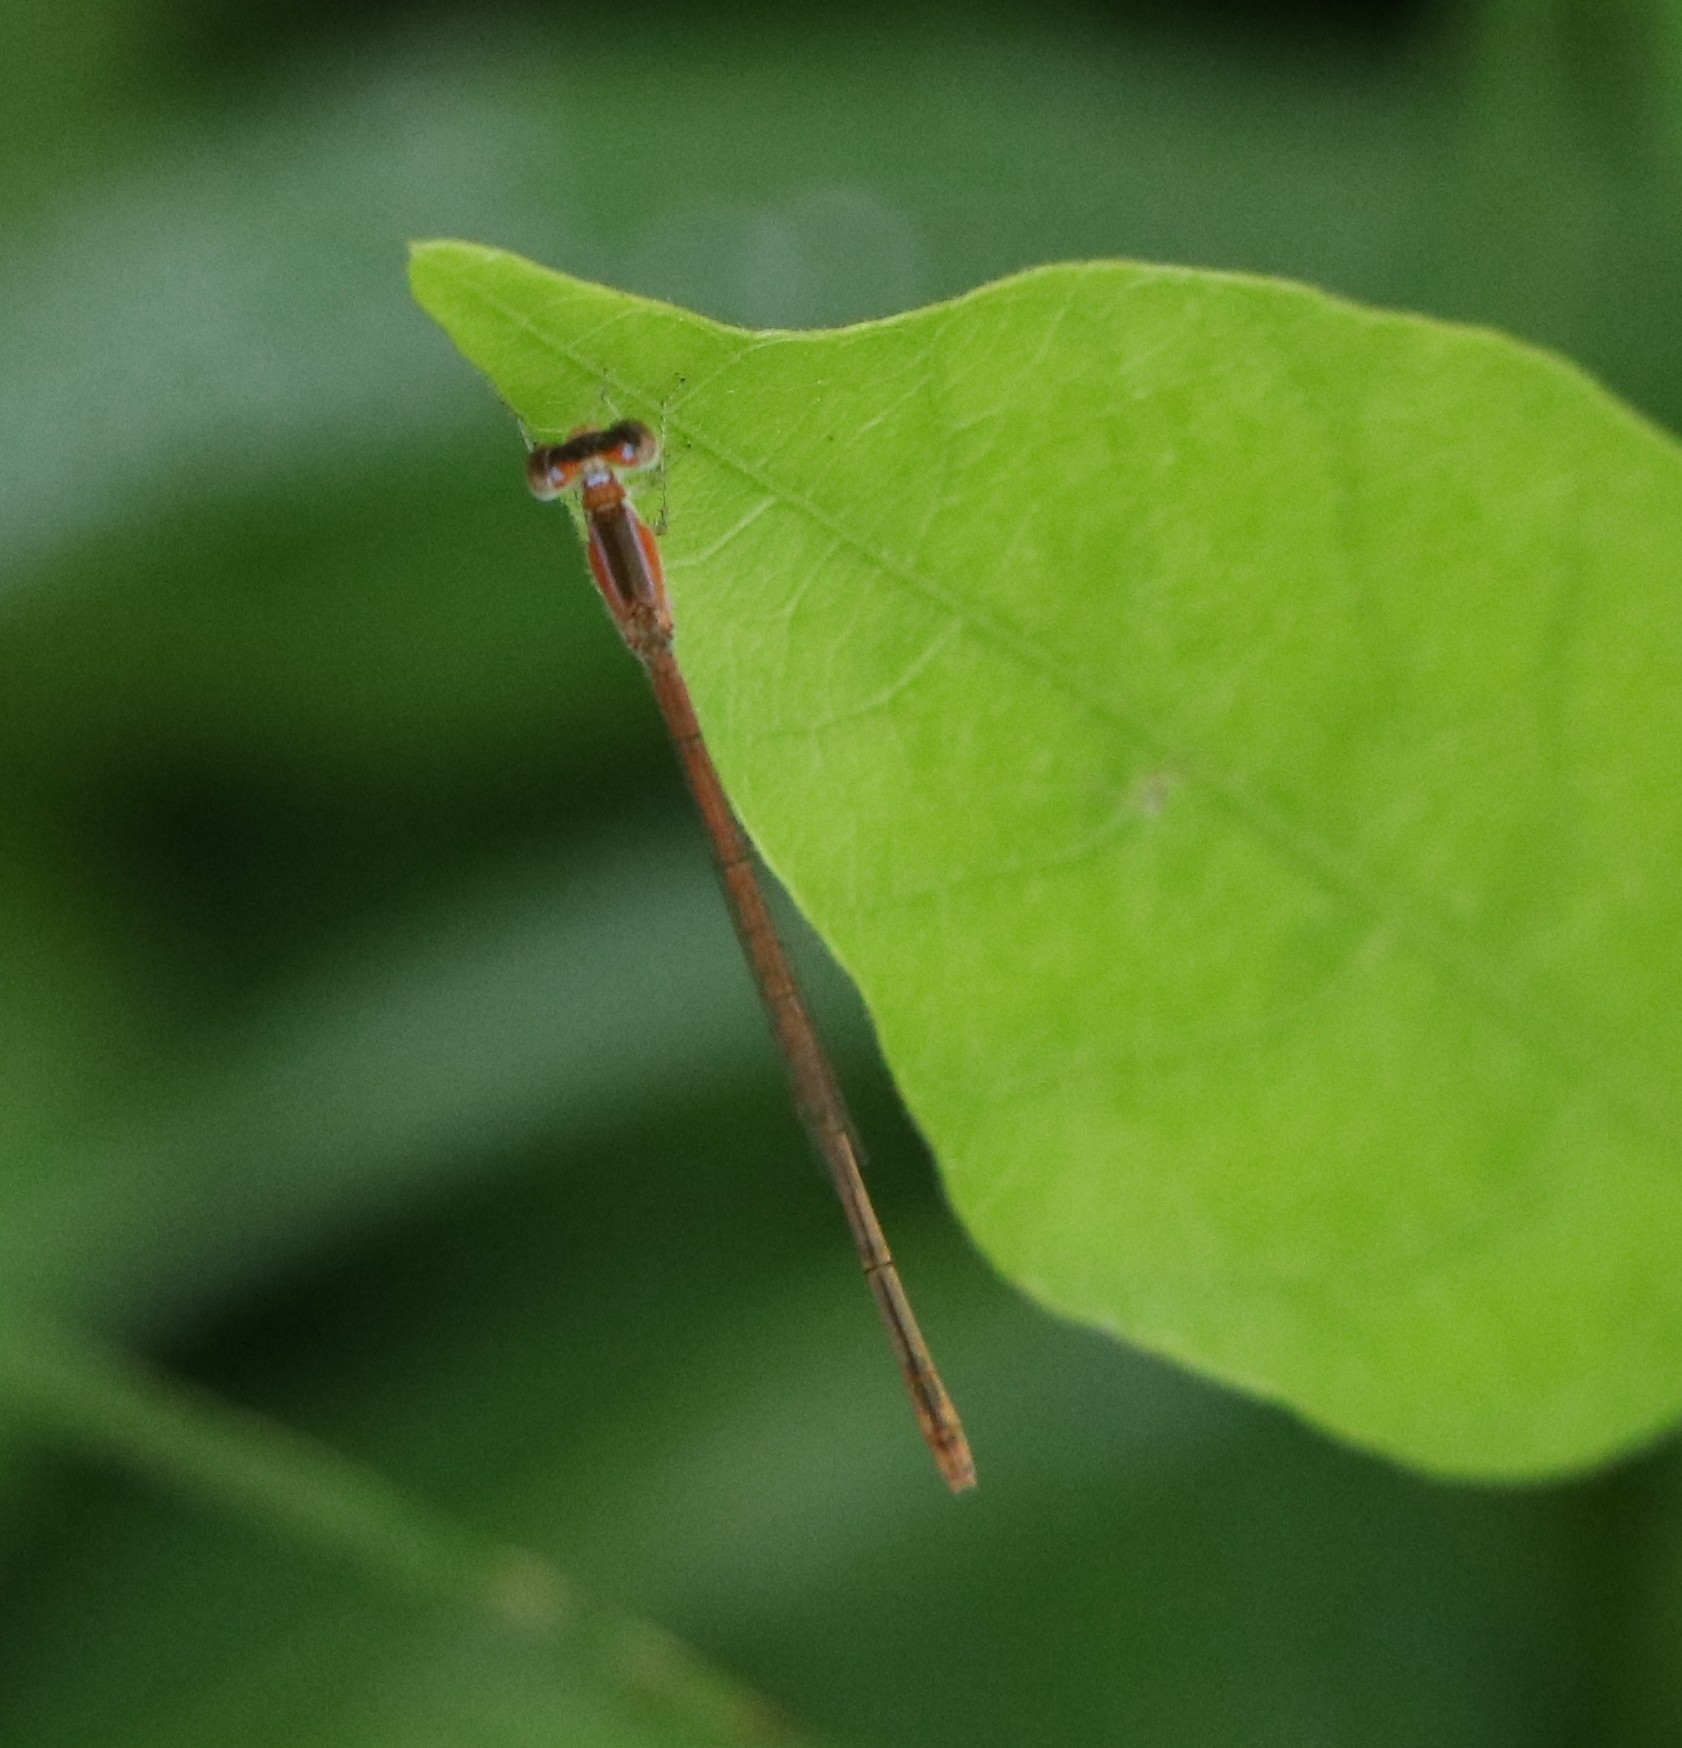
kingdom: Animalia
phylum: Arthropoda
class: Insecta
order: Odonata
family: Coenagrionidae
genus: Agriocnemis
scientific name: Agriocnemis pygmaea
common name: Pygmy wisp
